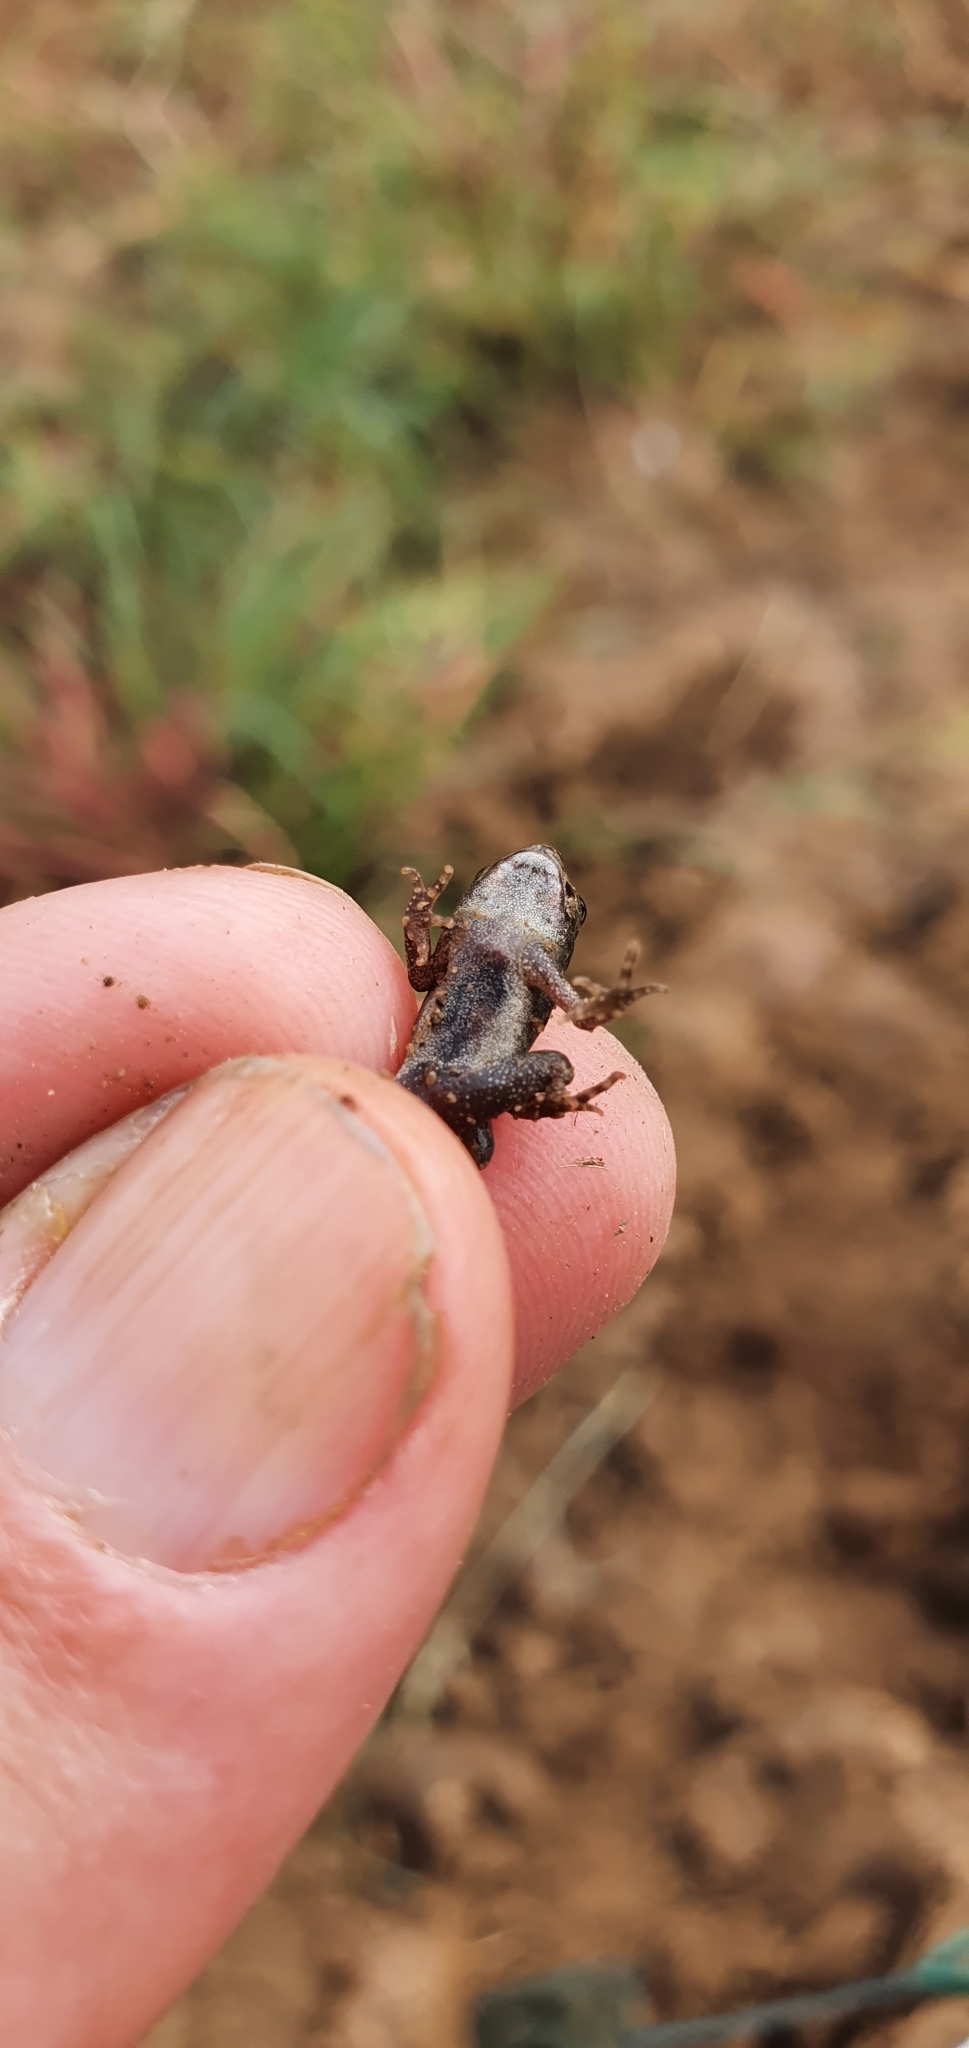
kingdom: Animalia
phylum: Chordata
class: Amphibia
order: Anura
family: Bufonidae
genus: Rhinella
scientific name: Rhinella marina
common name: Cane toad
